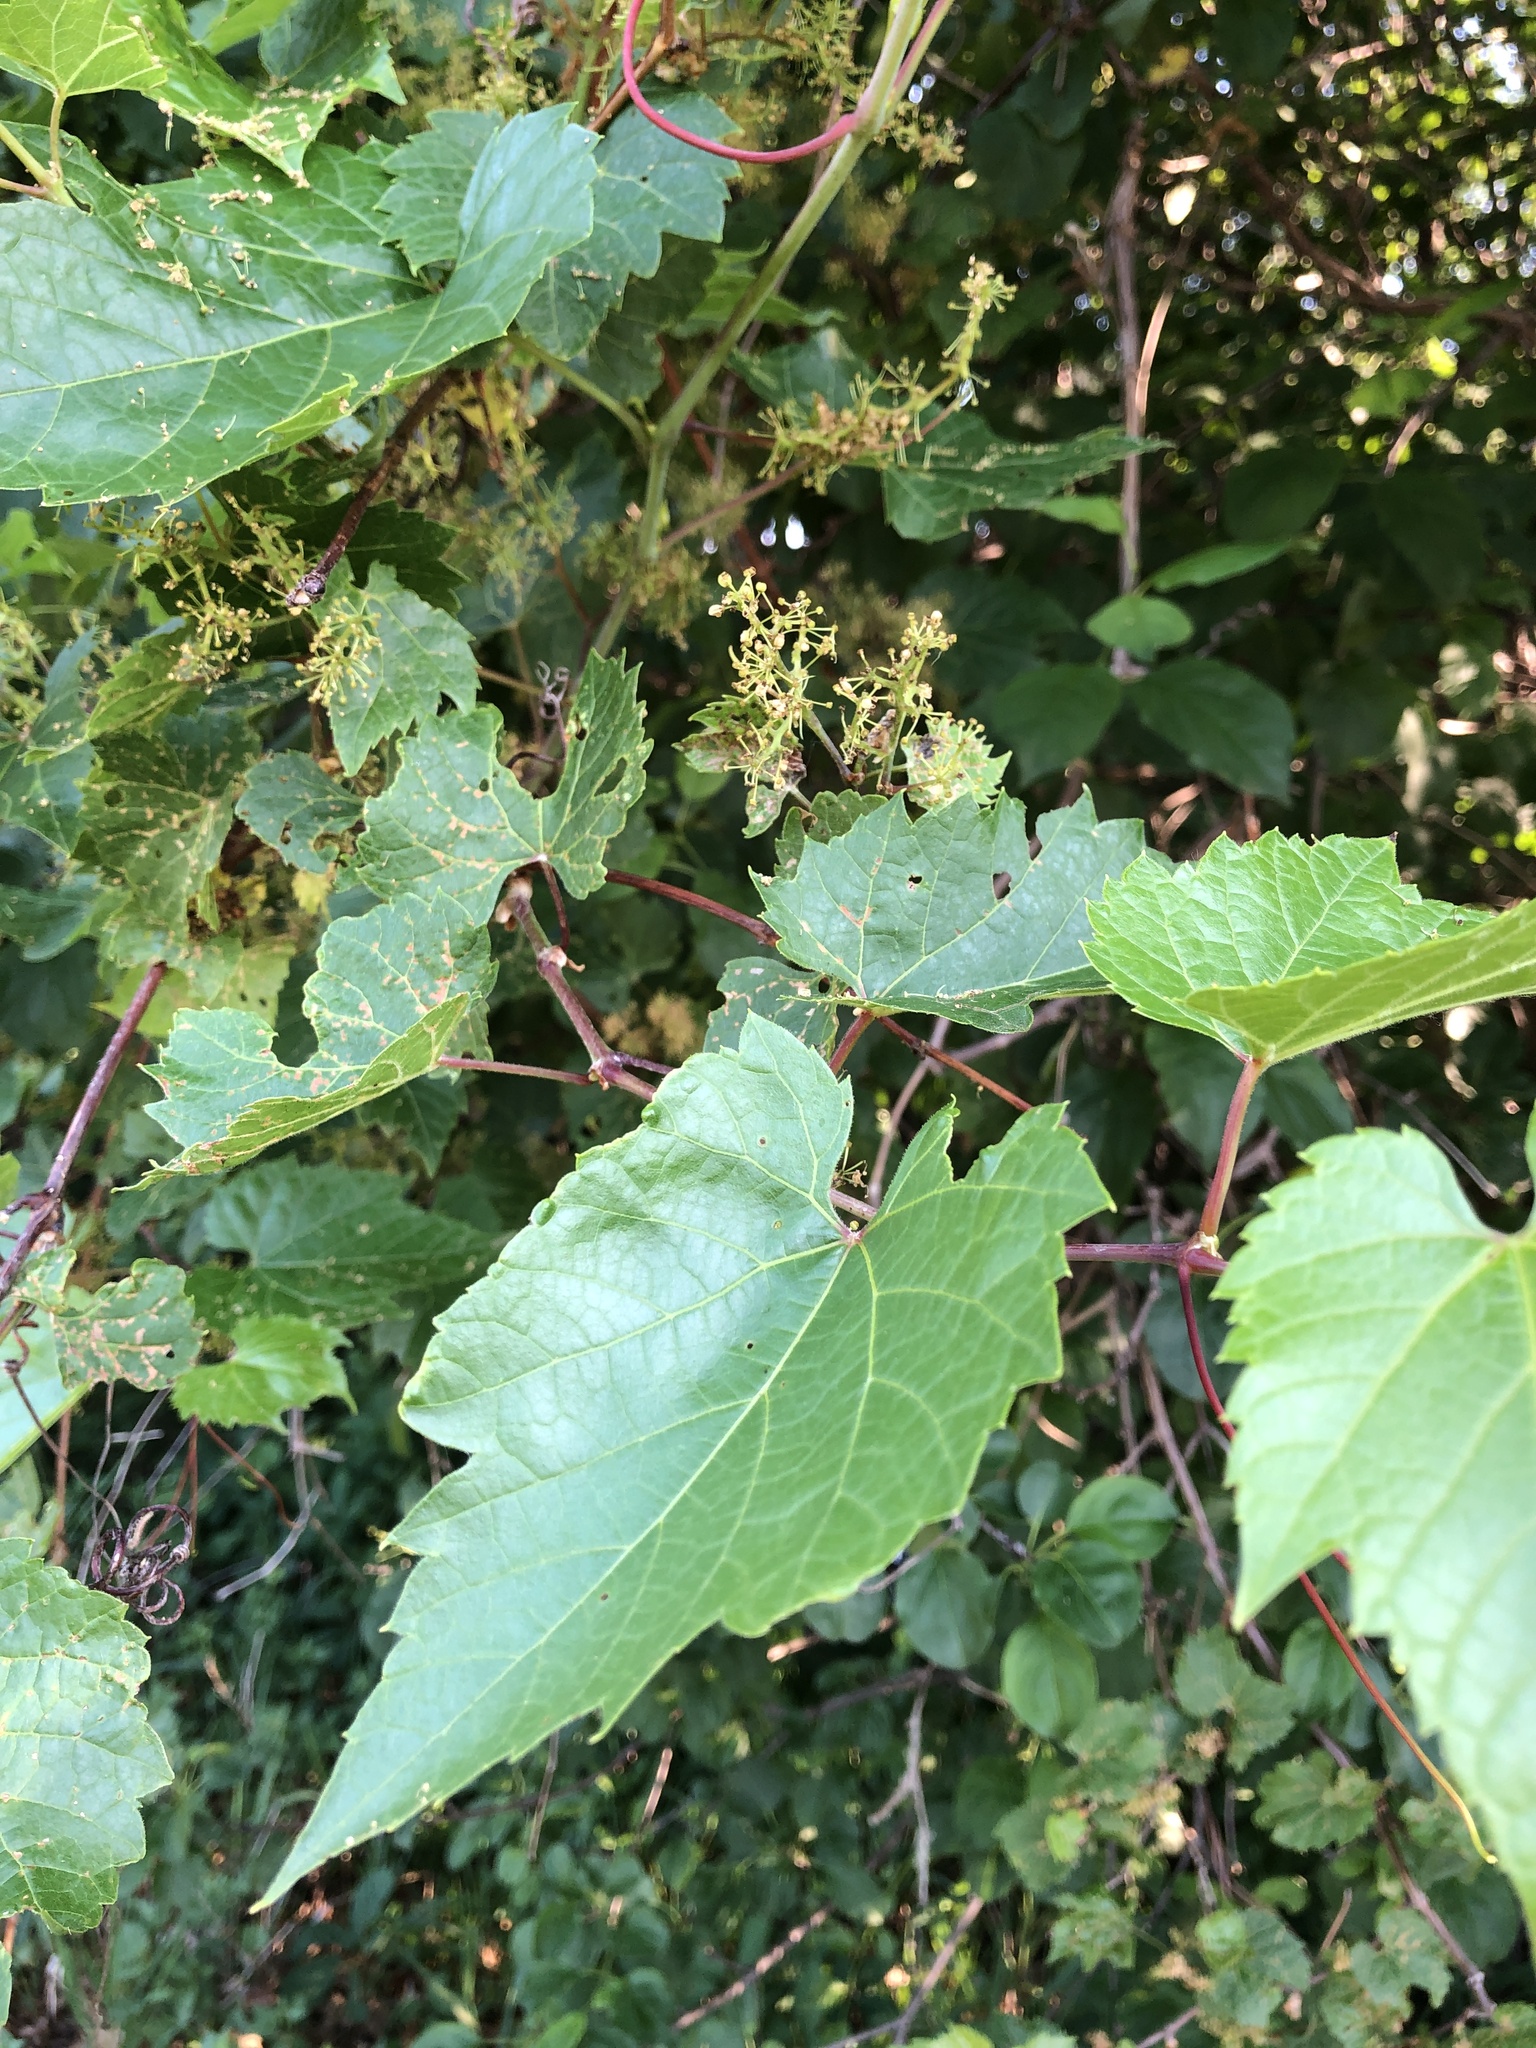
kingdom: Plantae
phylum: Tracheophyta
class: Magnoliopsida
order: Vitales
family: Vitaceae
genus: Vitis
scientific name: Vitis riparia
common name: Frost grape
